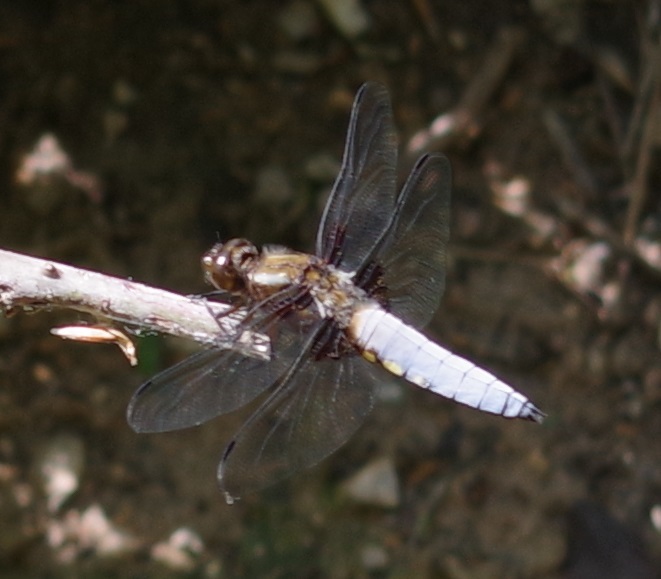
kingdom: Animalia
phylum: Arthropoda
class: Insecta
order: Odonata
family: Libellulidae
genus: Libellula
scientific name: Libellula depressa
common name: Broad-bodied chaser
